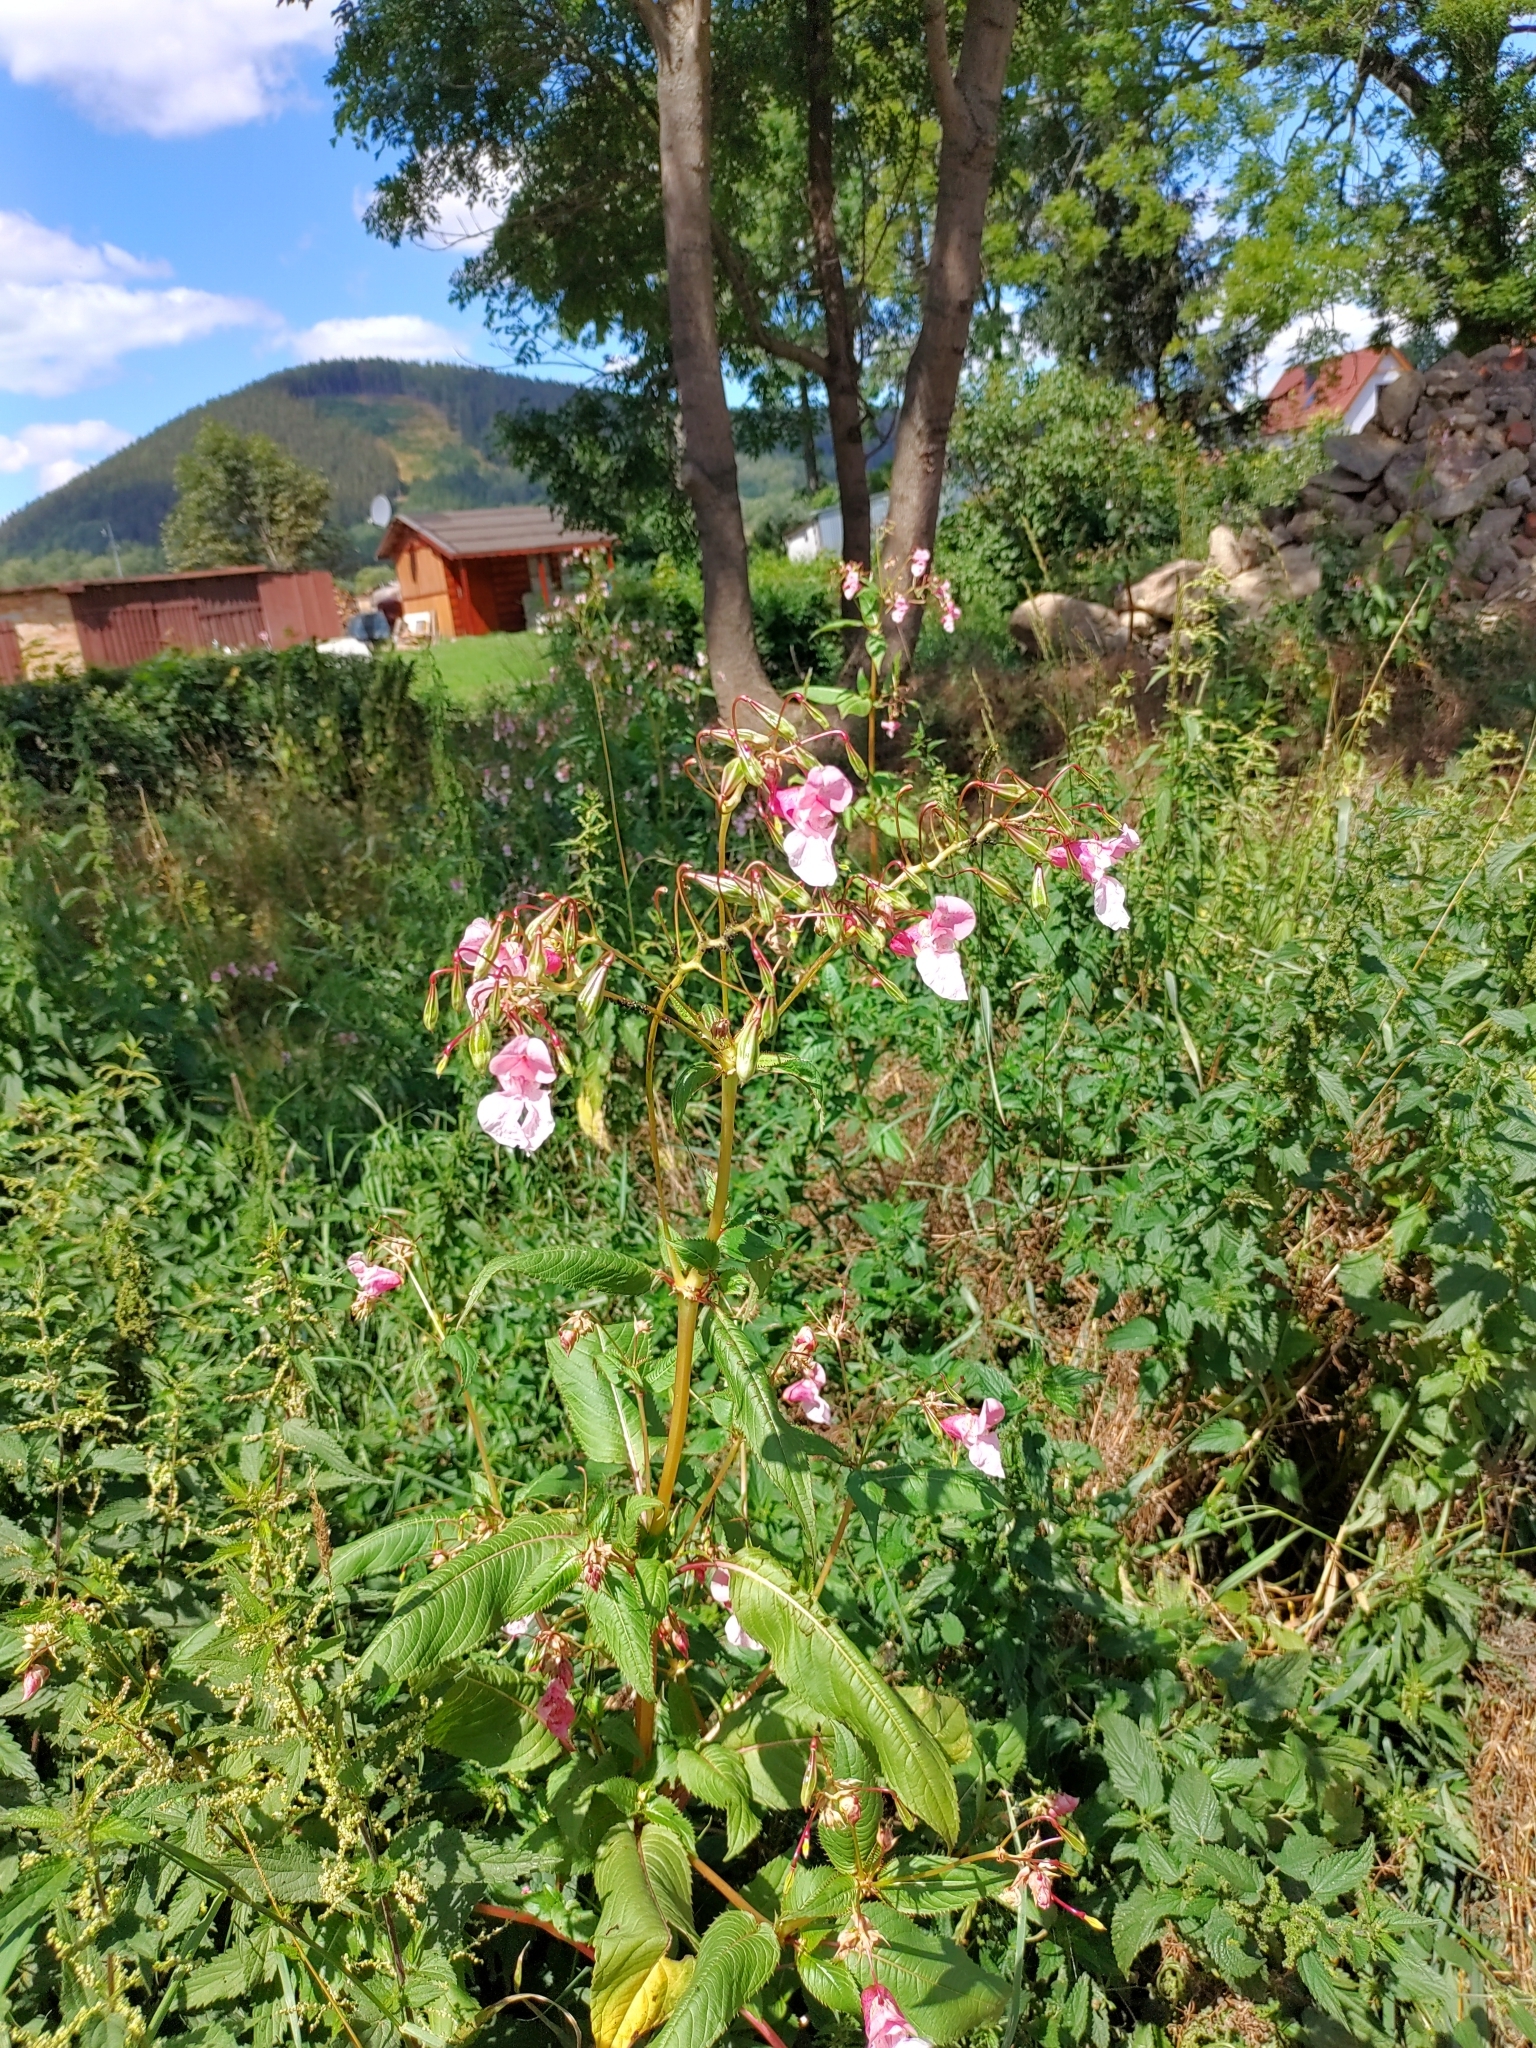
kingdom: Plantae
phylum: Tracheophyta
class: Magnoliopsida
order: Ericales
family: Balsaminaceae
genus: Impatiens
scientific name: Impatiens glandulifera
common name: Himalayan balsam
